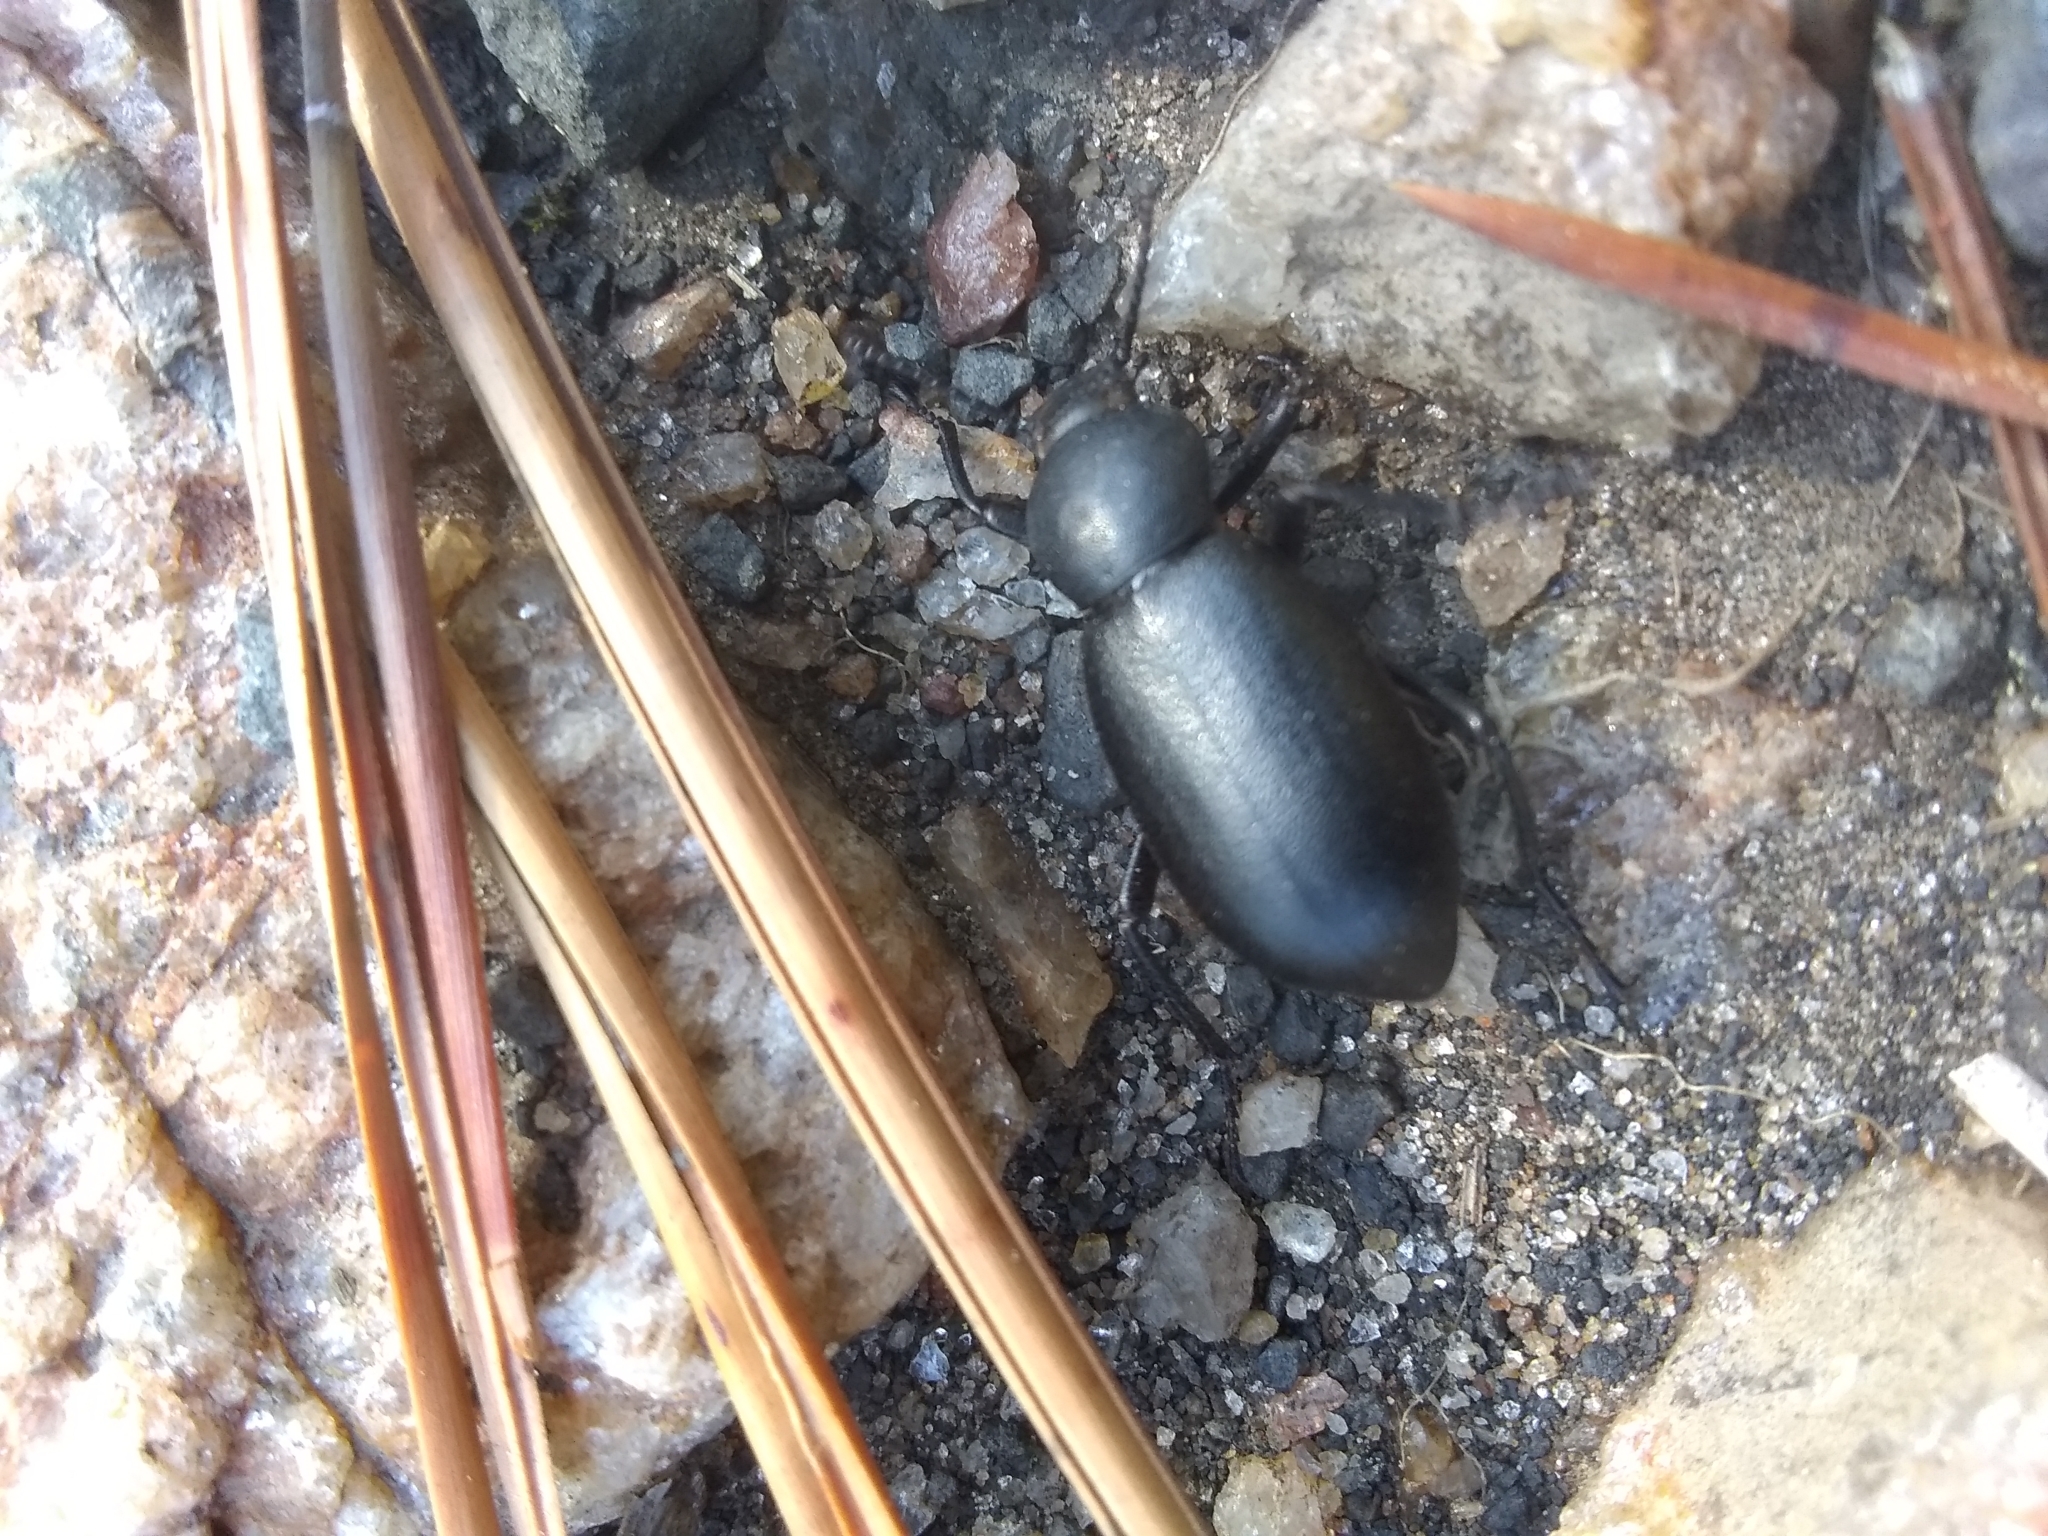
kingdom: Animalia
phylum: Arthropoda
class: Insecta
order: Coleoptera
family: Tenebrionidae
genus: Eleodes
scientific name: Eleodes nigrina
